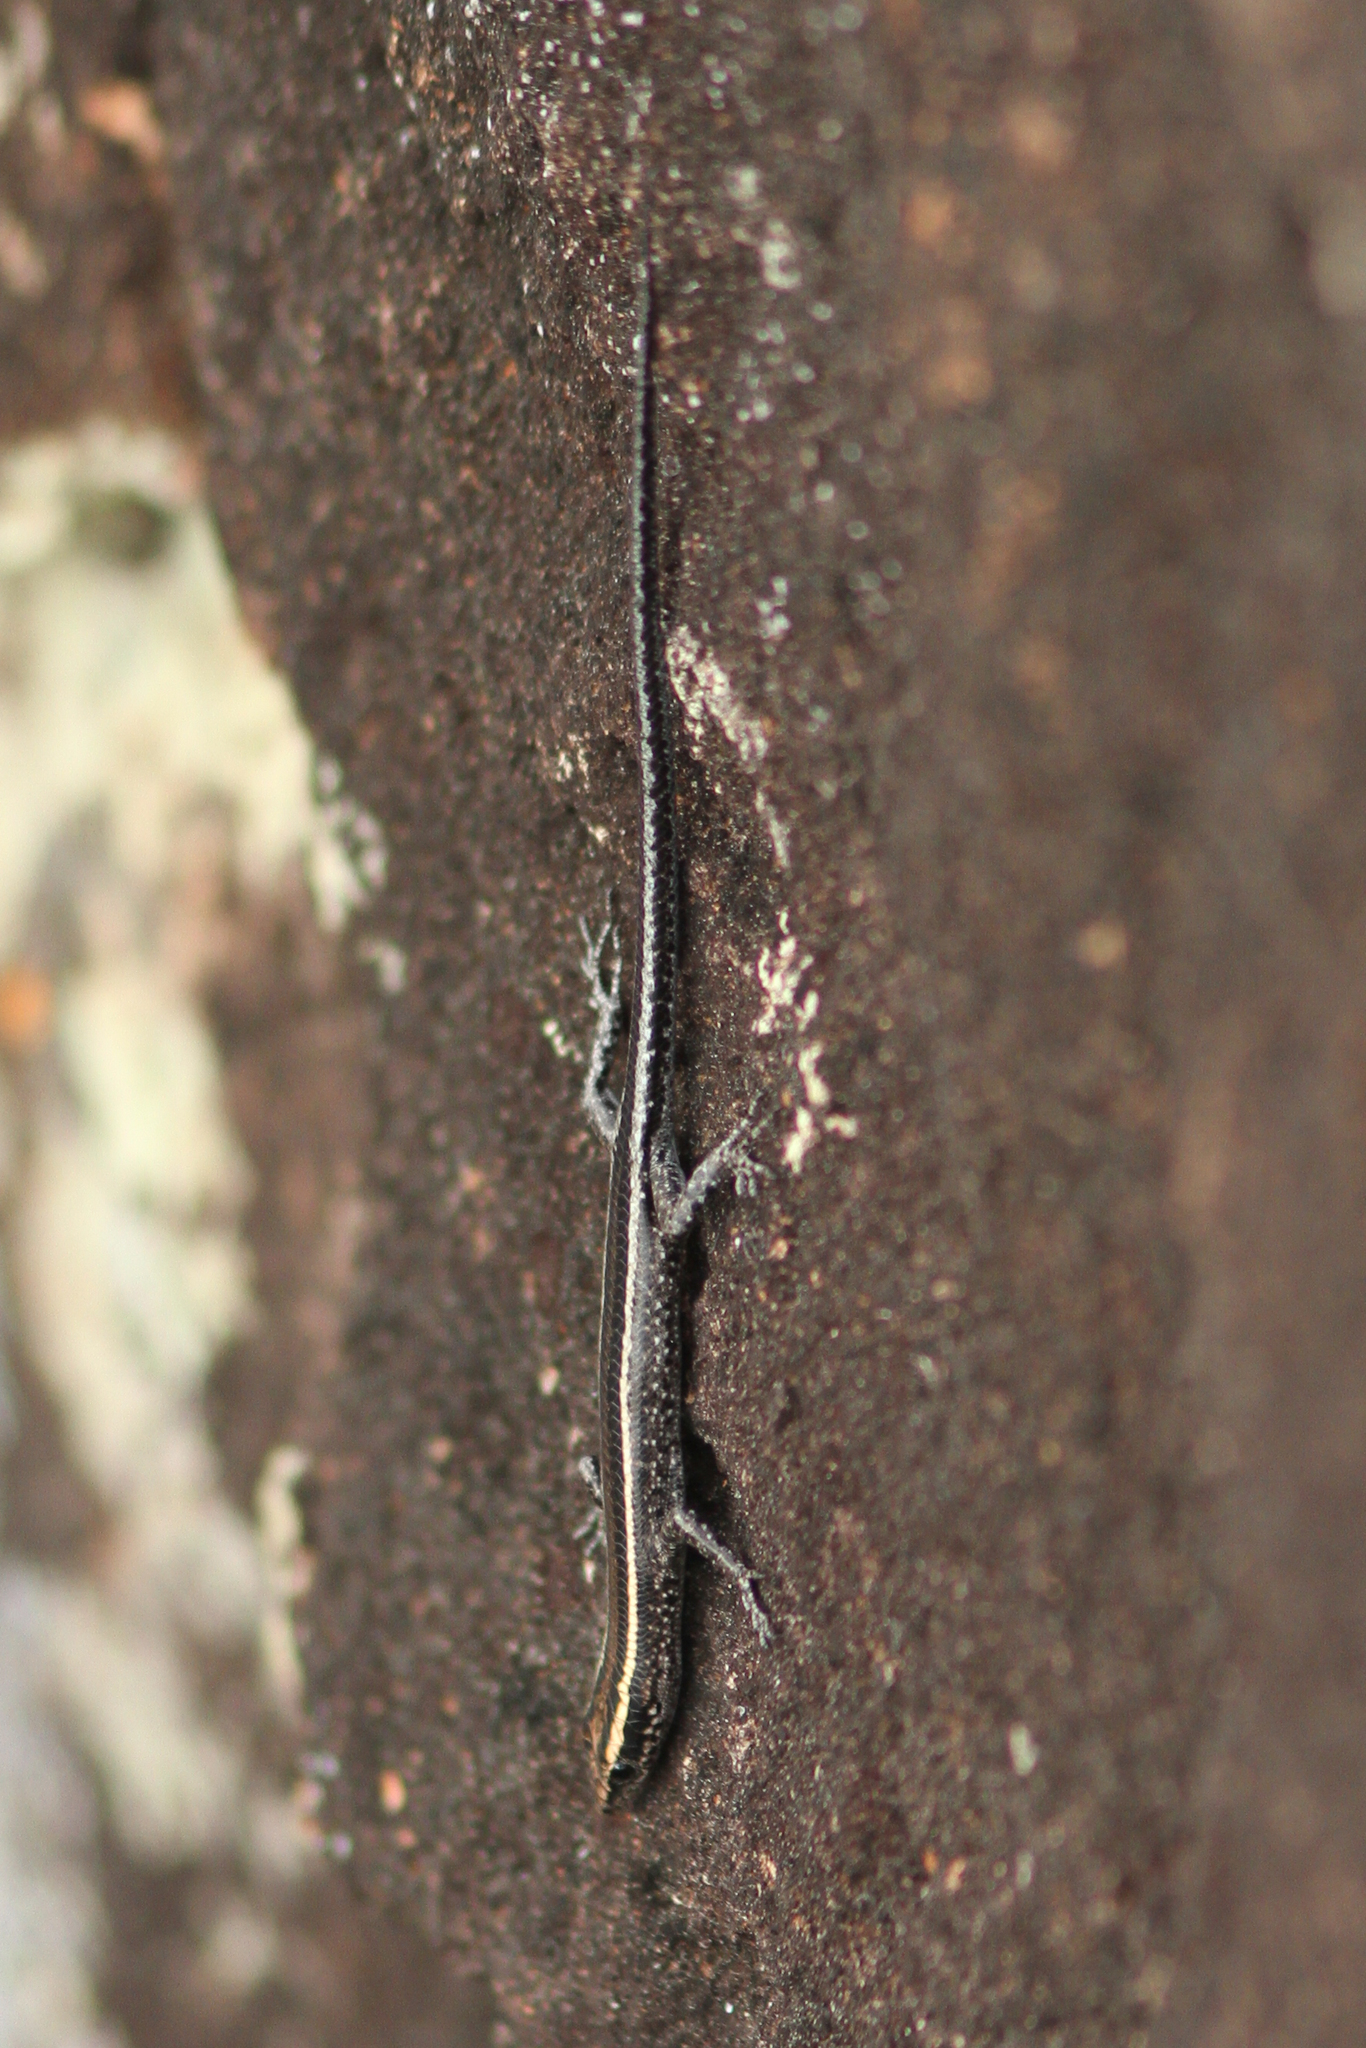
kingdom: Animalia
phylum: Chordata
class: Squamata
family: Scincidae
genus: Cryptoblepharus
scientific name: Cryptoblepharus pulcher
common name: Elegant snake-eyed skink
